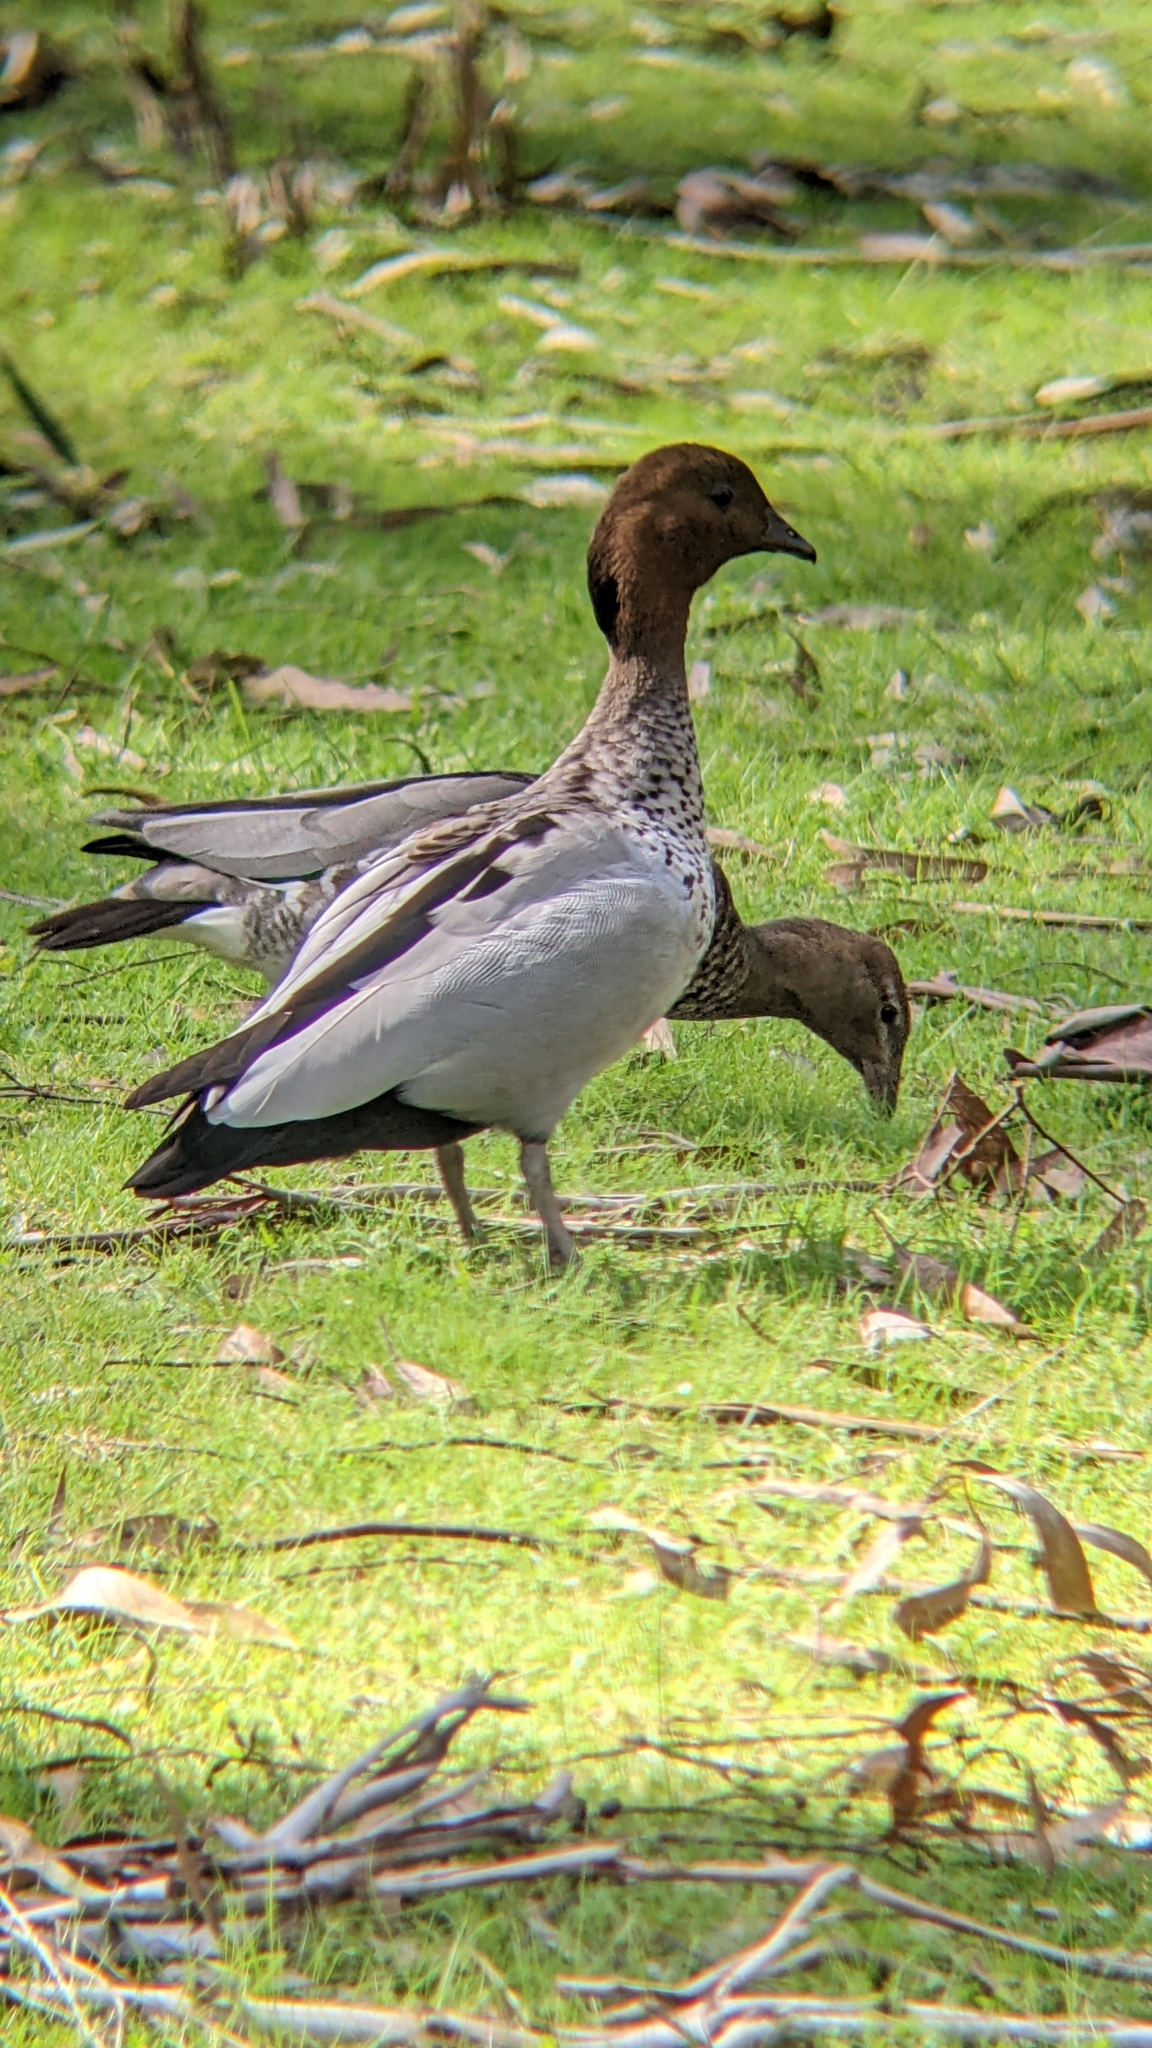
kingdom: Animalia
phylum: Chordata
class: Aves
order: Anseriformes
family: Anatidae
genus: Chenonetta
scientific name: Chenonetta jubata
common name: Maned duck
